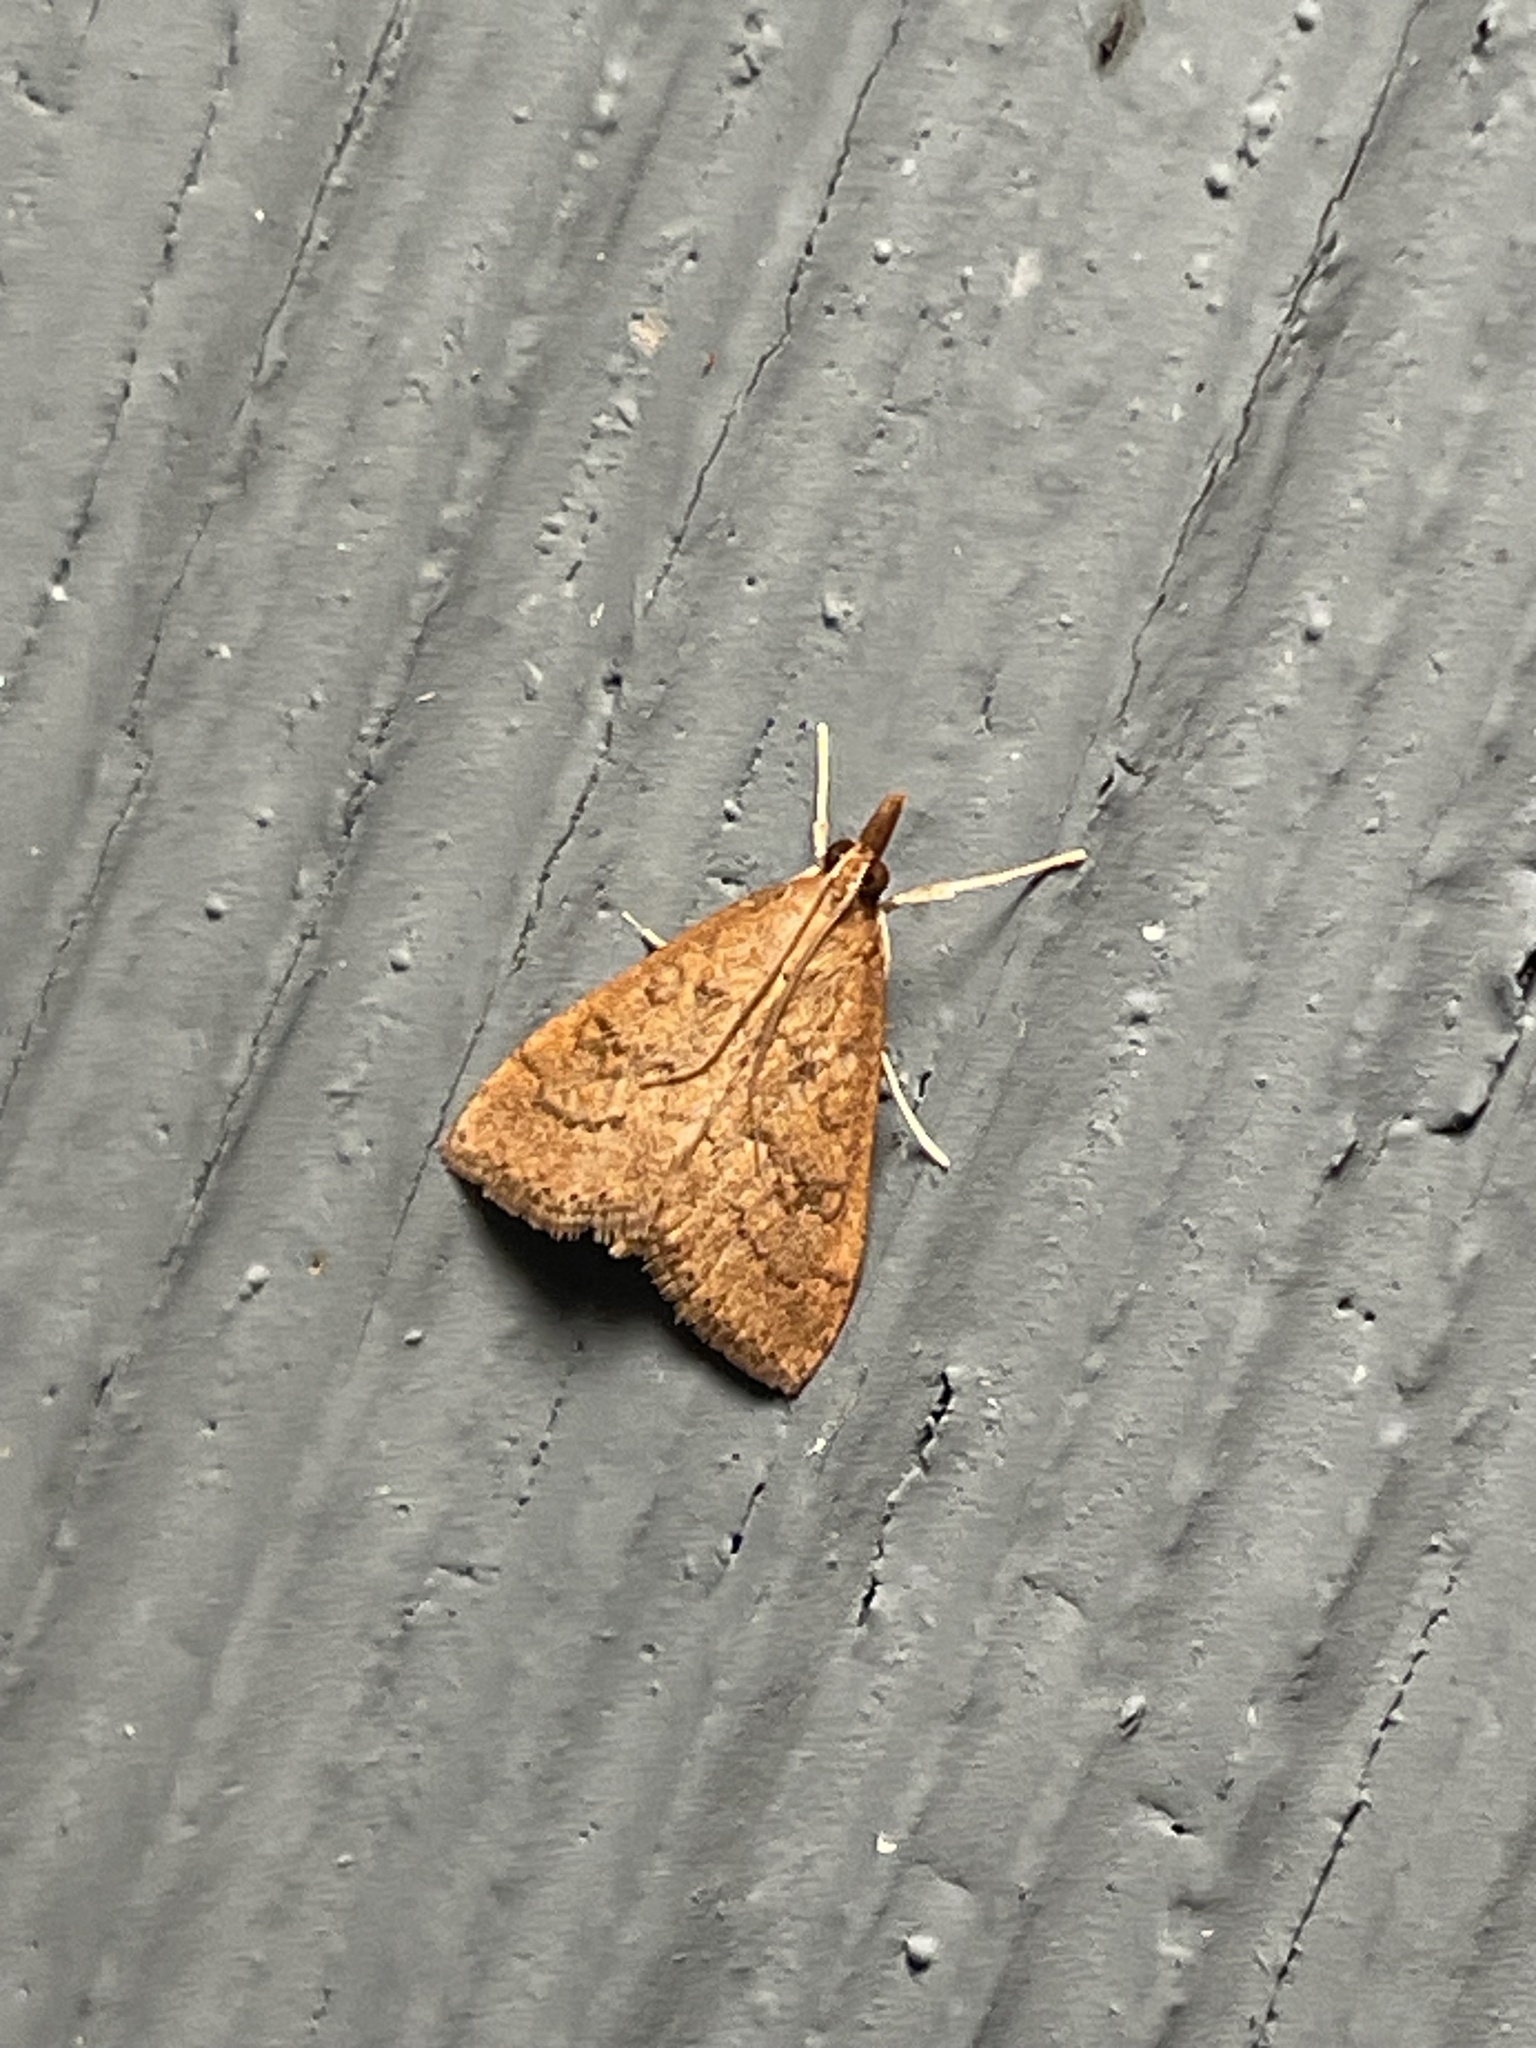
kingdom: Animalia
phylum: Arthropoda
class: Insecta
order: Lepidoptera
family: Crambidae
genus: Udea
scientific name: Udea rubigalis
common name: Celery leaftier moth
